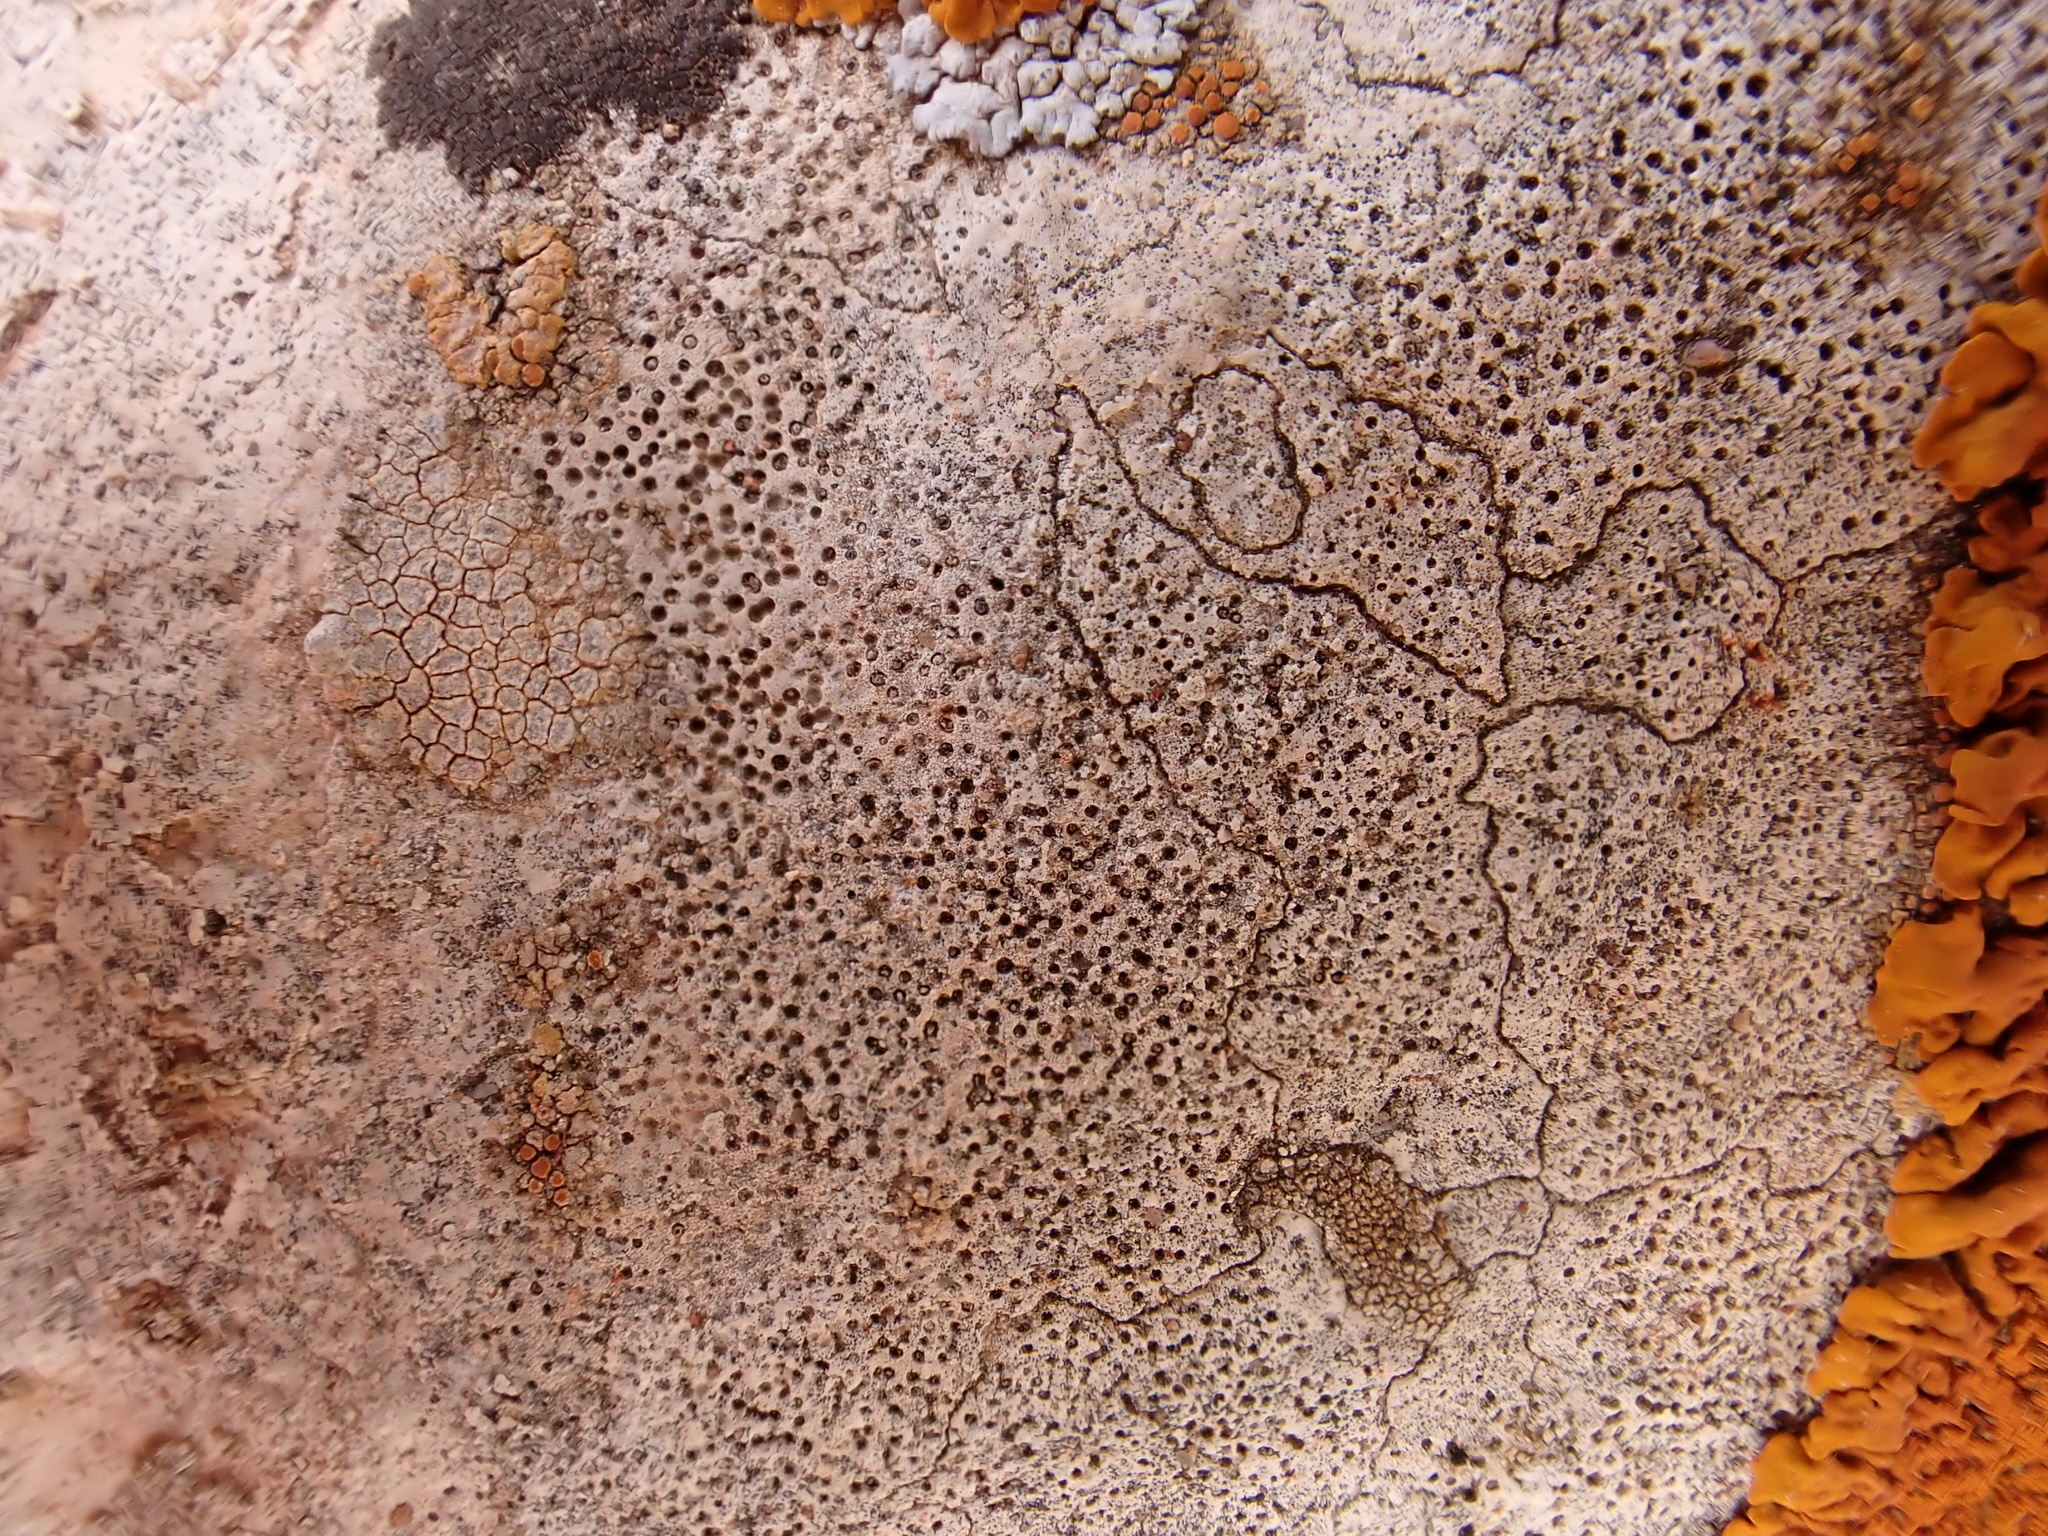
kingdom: Fungi
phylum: Ascomycota
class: Eurotiomycetes
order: Verrucariales
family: Verrucariaceae
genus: Bagliettoa
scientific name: Bagliettoa calciseda
